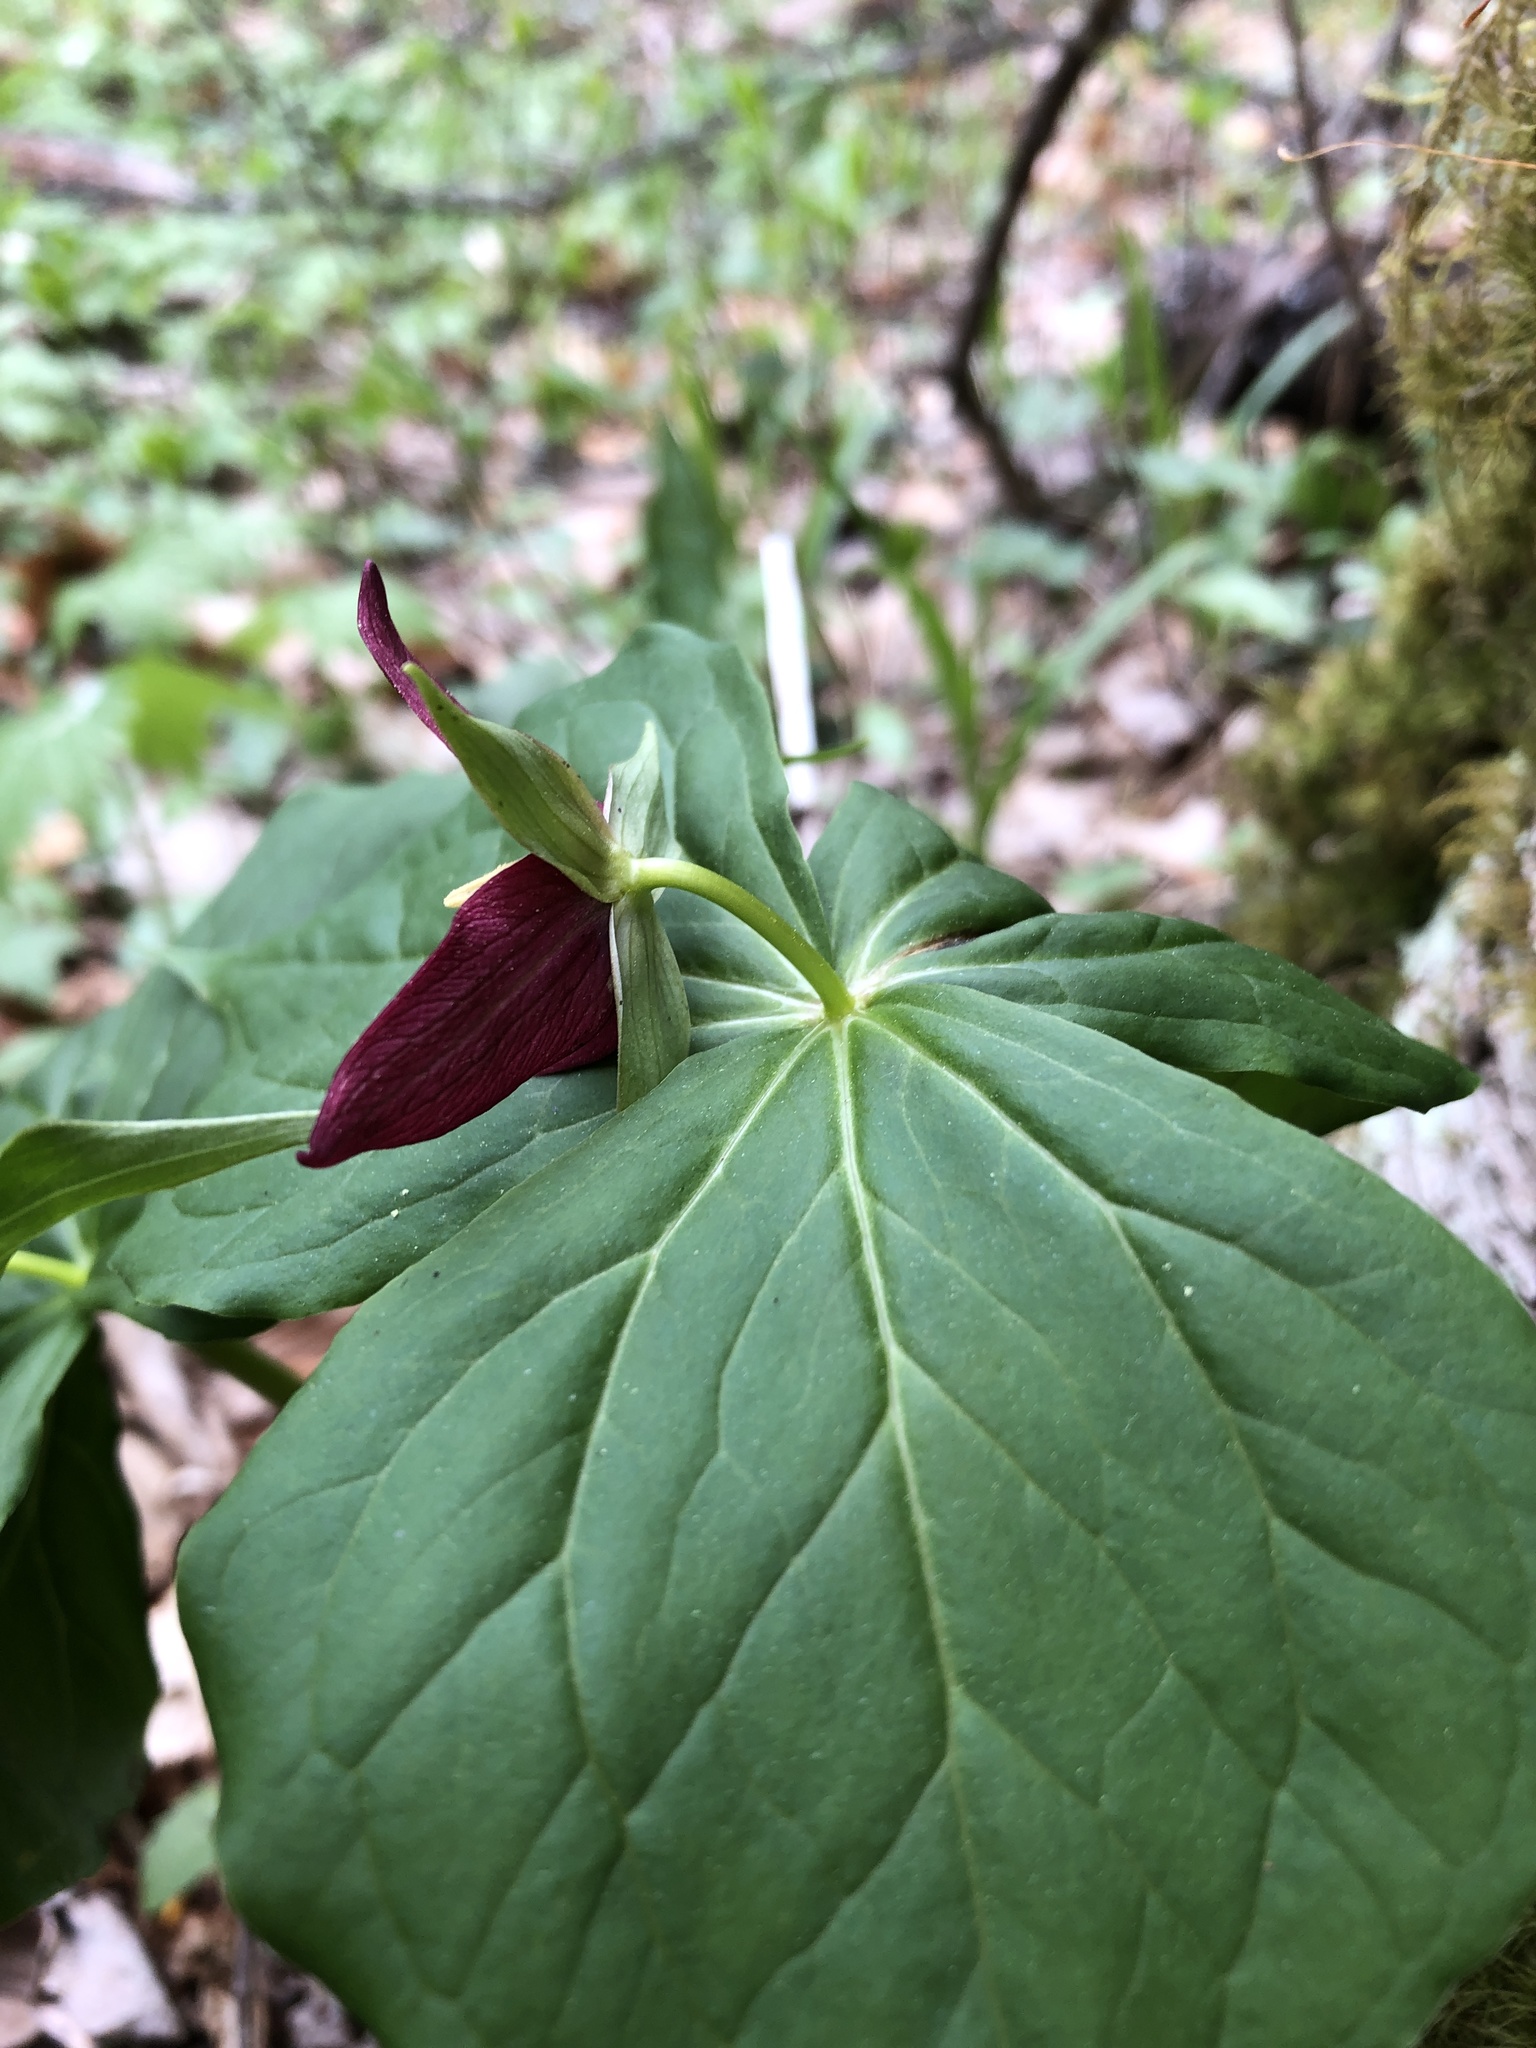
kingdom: Plantae
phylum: Tracheophyta
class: Liliopsida
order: Liliales
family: Melanthiaceae
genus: Trillium
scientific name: Trillium erectum
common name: Purple trillium
